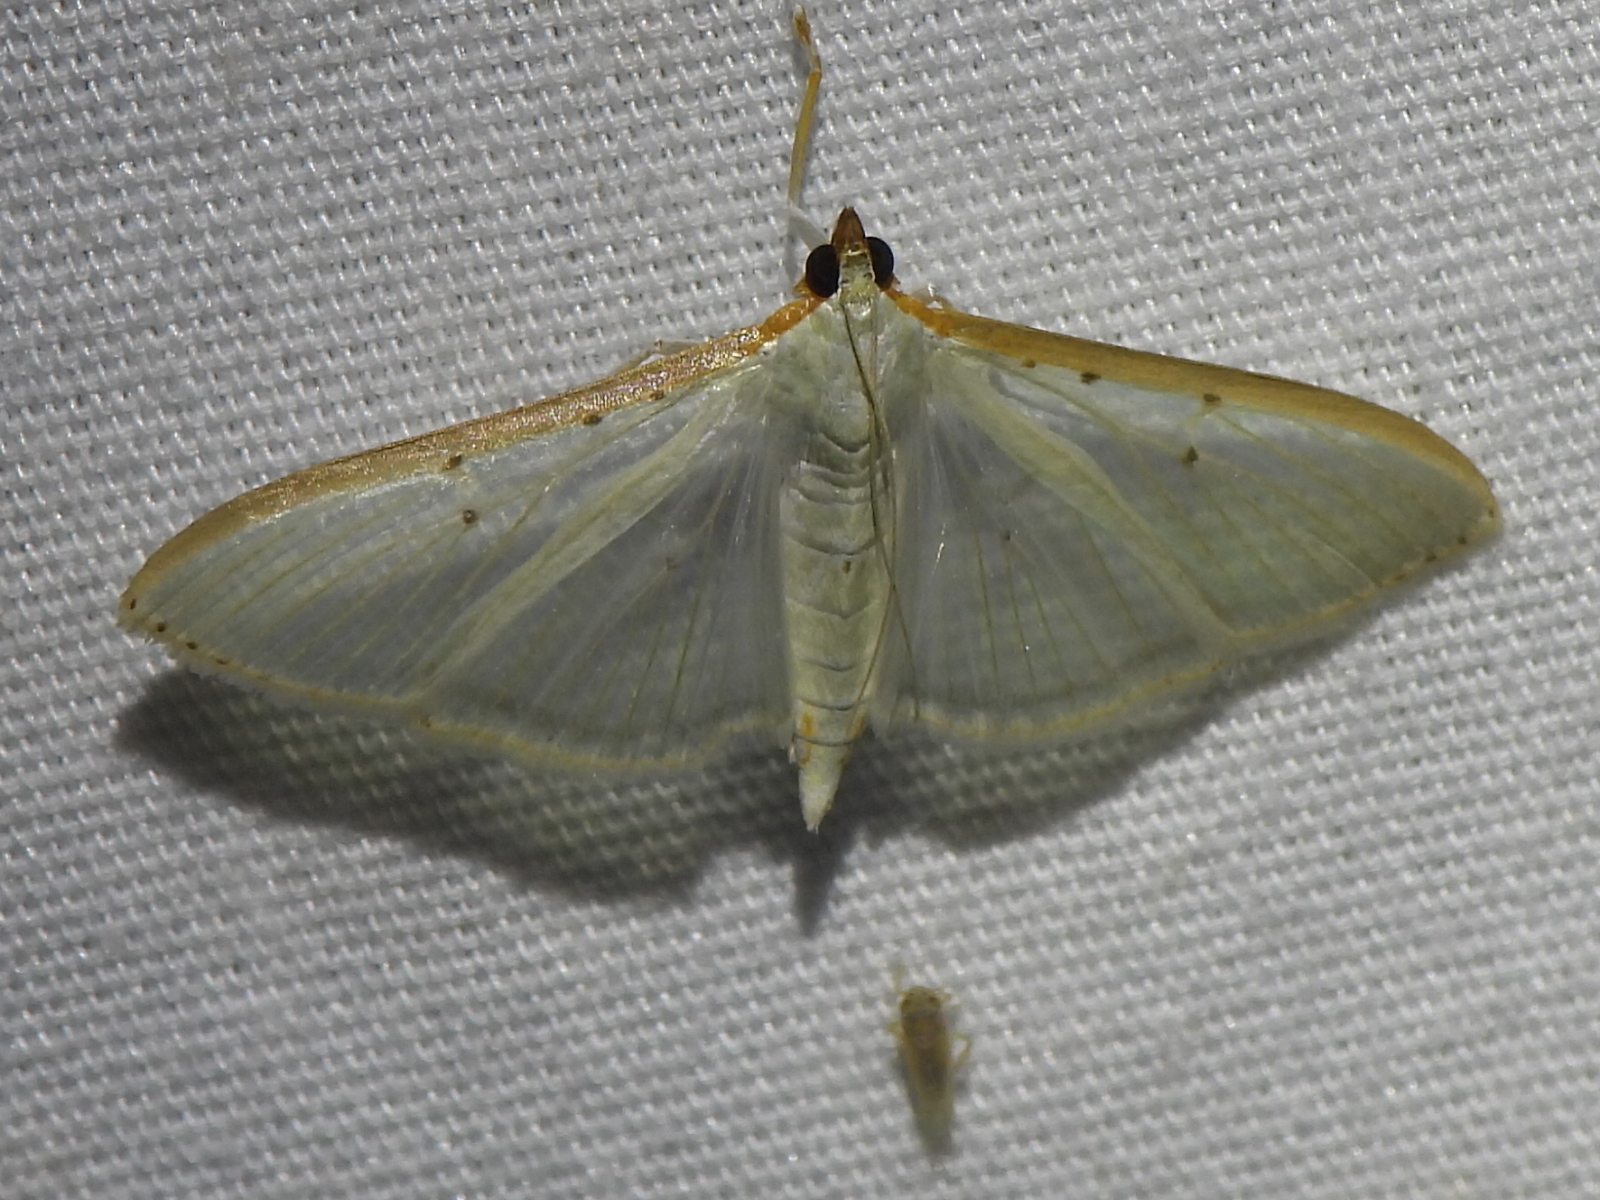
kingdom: Animalia
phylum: Arthropoda
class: Insecta
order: Lepidoptera
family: Crambidae
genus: Palpita
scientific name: Palpita quadristigmalis
